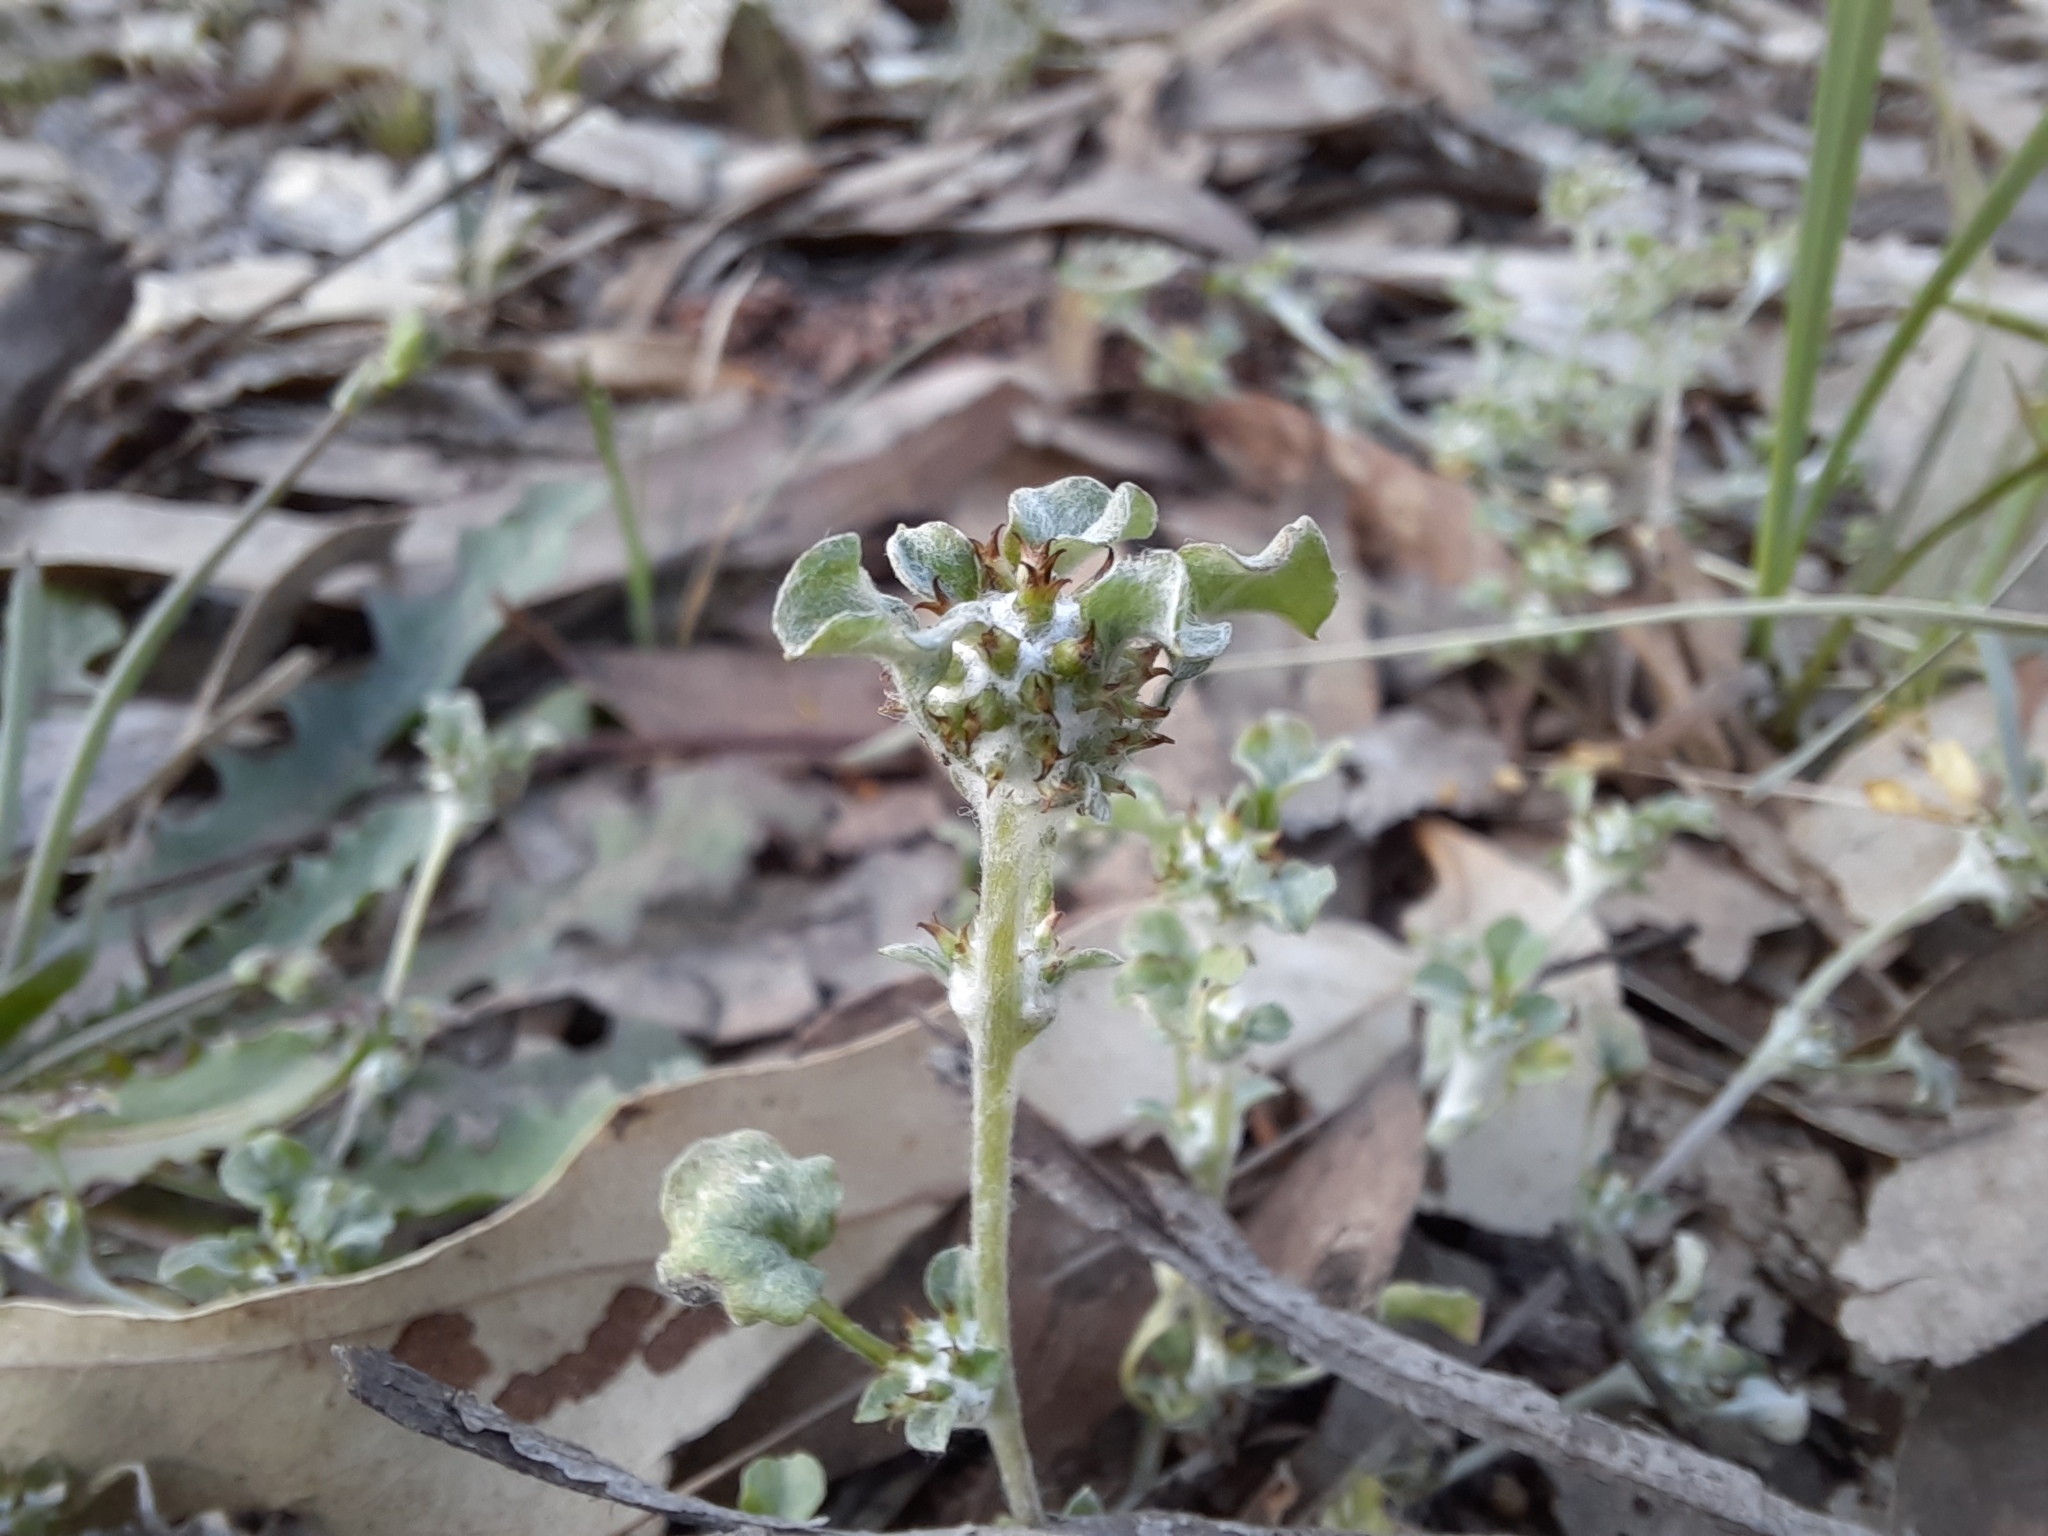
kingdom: Plantae
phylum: Tracheophyta
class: Magnoliopsida
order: Asterales
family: Asteraceae
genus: Stuartina
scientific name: Stuartina muelleri
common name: Spoon-leaved cudweed
